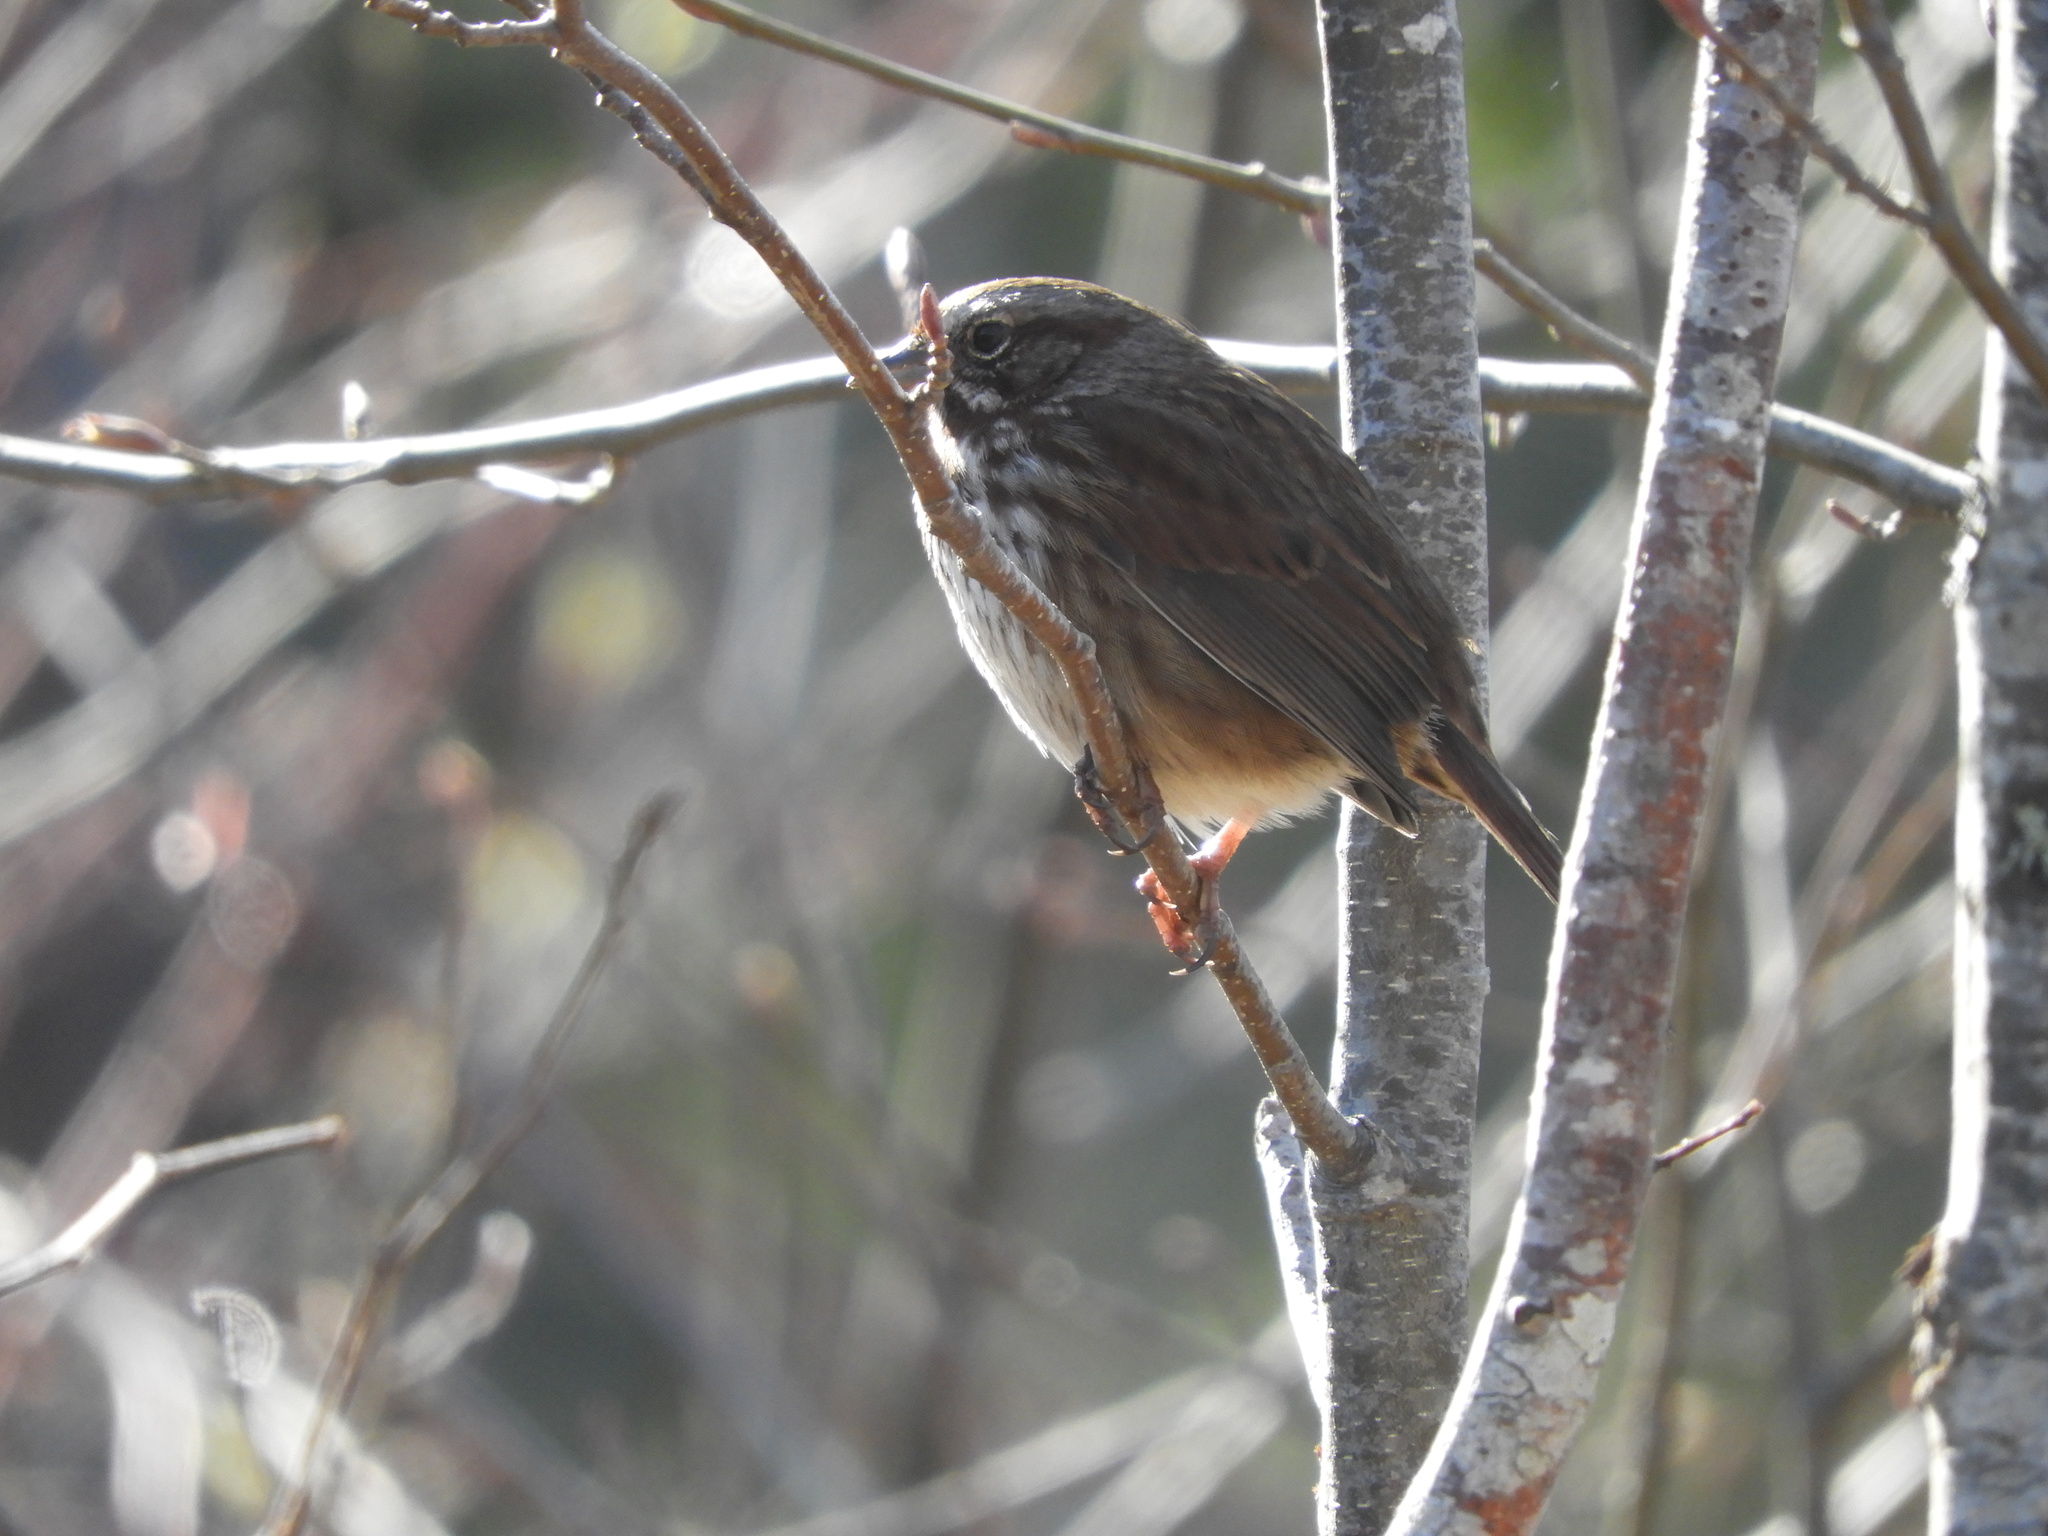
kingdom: Animalia
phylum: Chordata
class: Aves
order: Passeriformes
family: Passerellidae
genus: Melospiza
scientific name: Melospiza melodia
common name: Song sparrow
